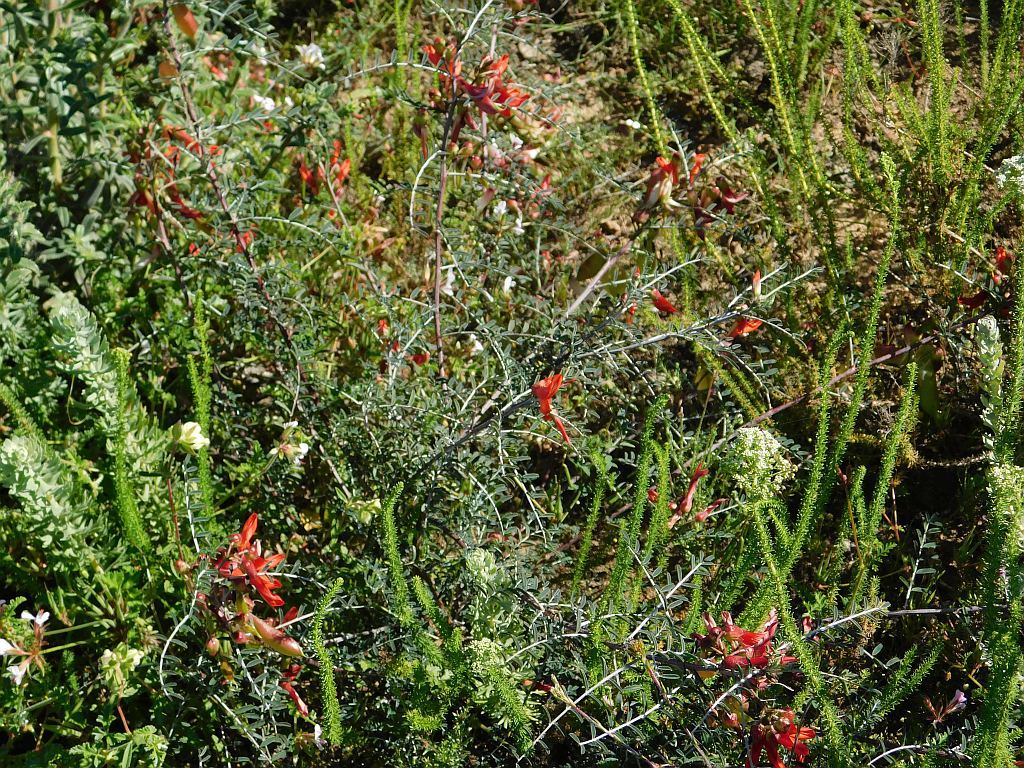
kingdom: Plantae
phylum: Tracheophyta
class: Magnoliopsida
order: Fabales
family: Fabaceae
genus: Lessertia
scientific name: Lessertia frutescens
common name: Balloon-pea
